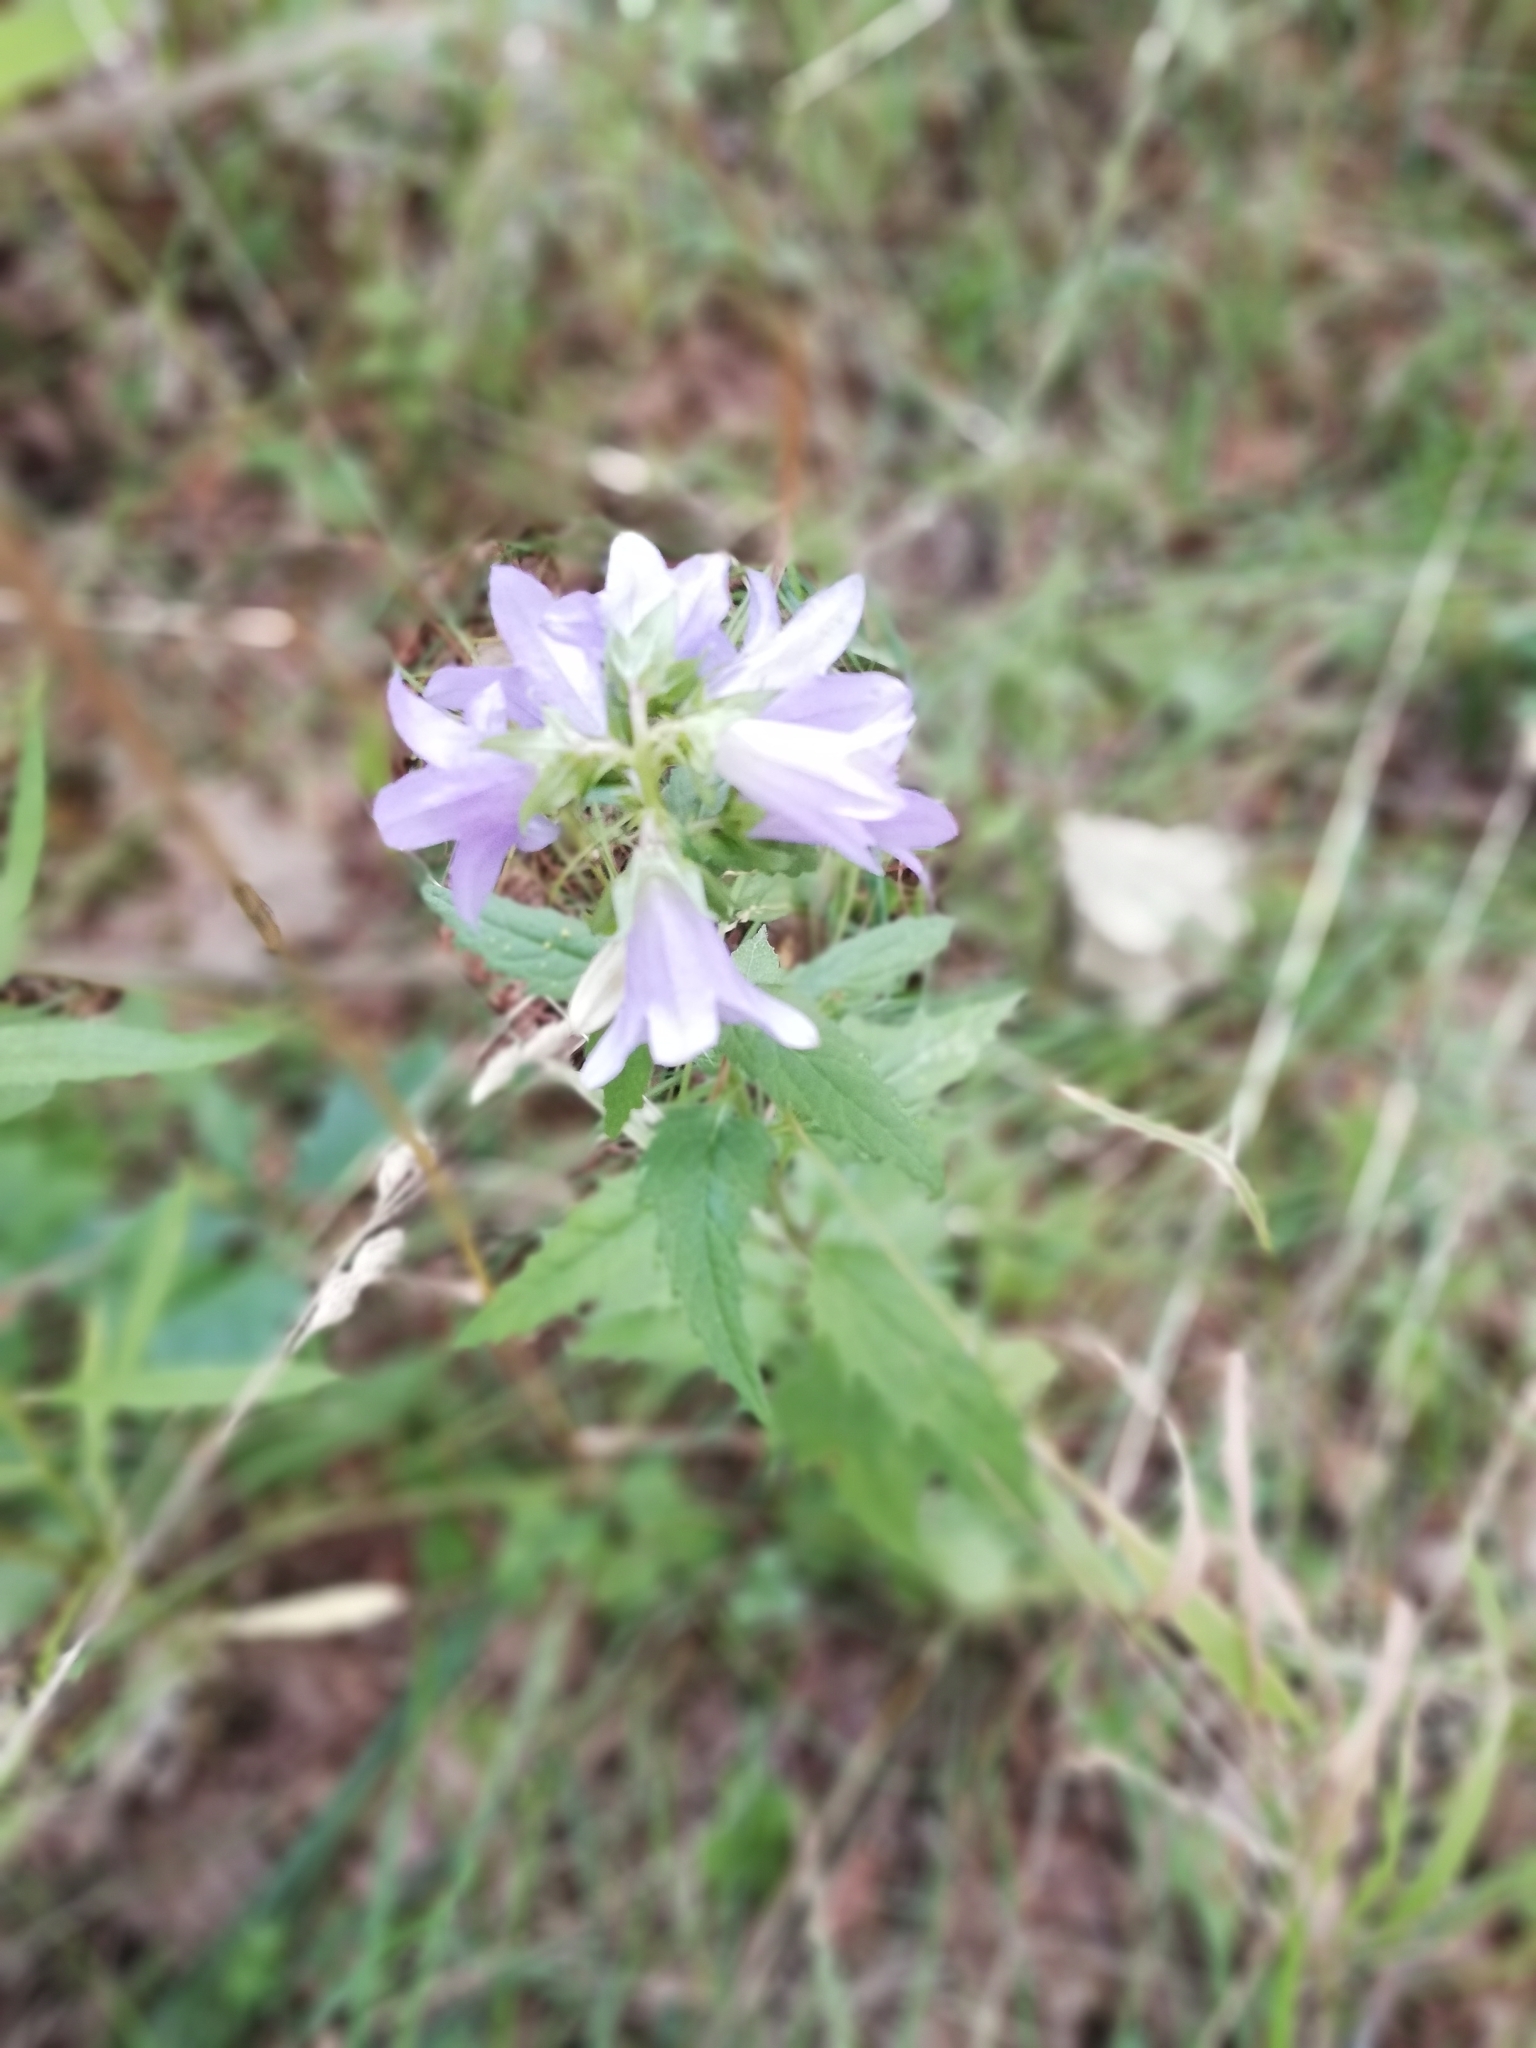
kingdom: Plantae
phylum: Tracheophyta
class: Magnoliopsida
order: Asterales
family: Campanulaceae
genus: Campanula
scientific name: Campanula trachelium
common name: Nettle-leaved bellflower
